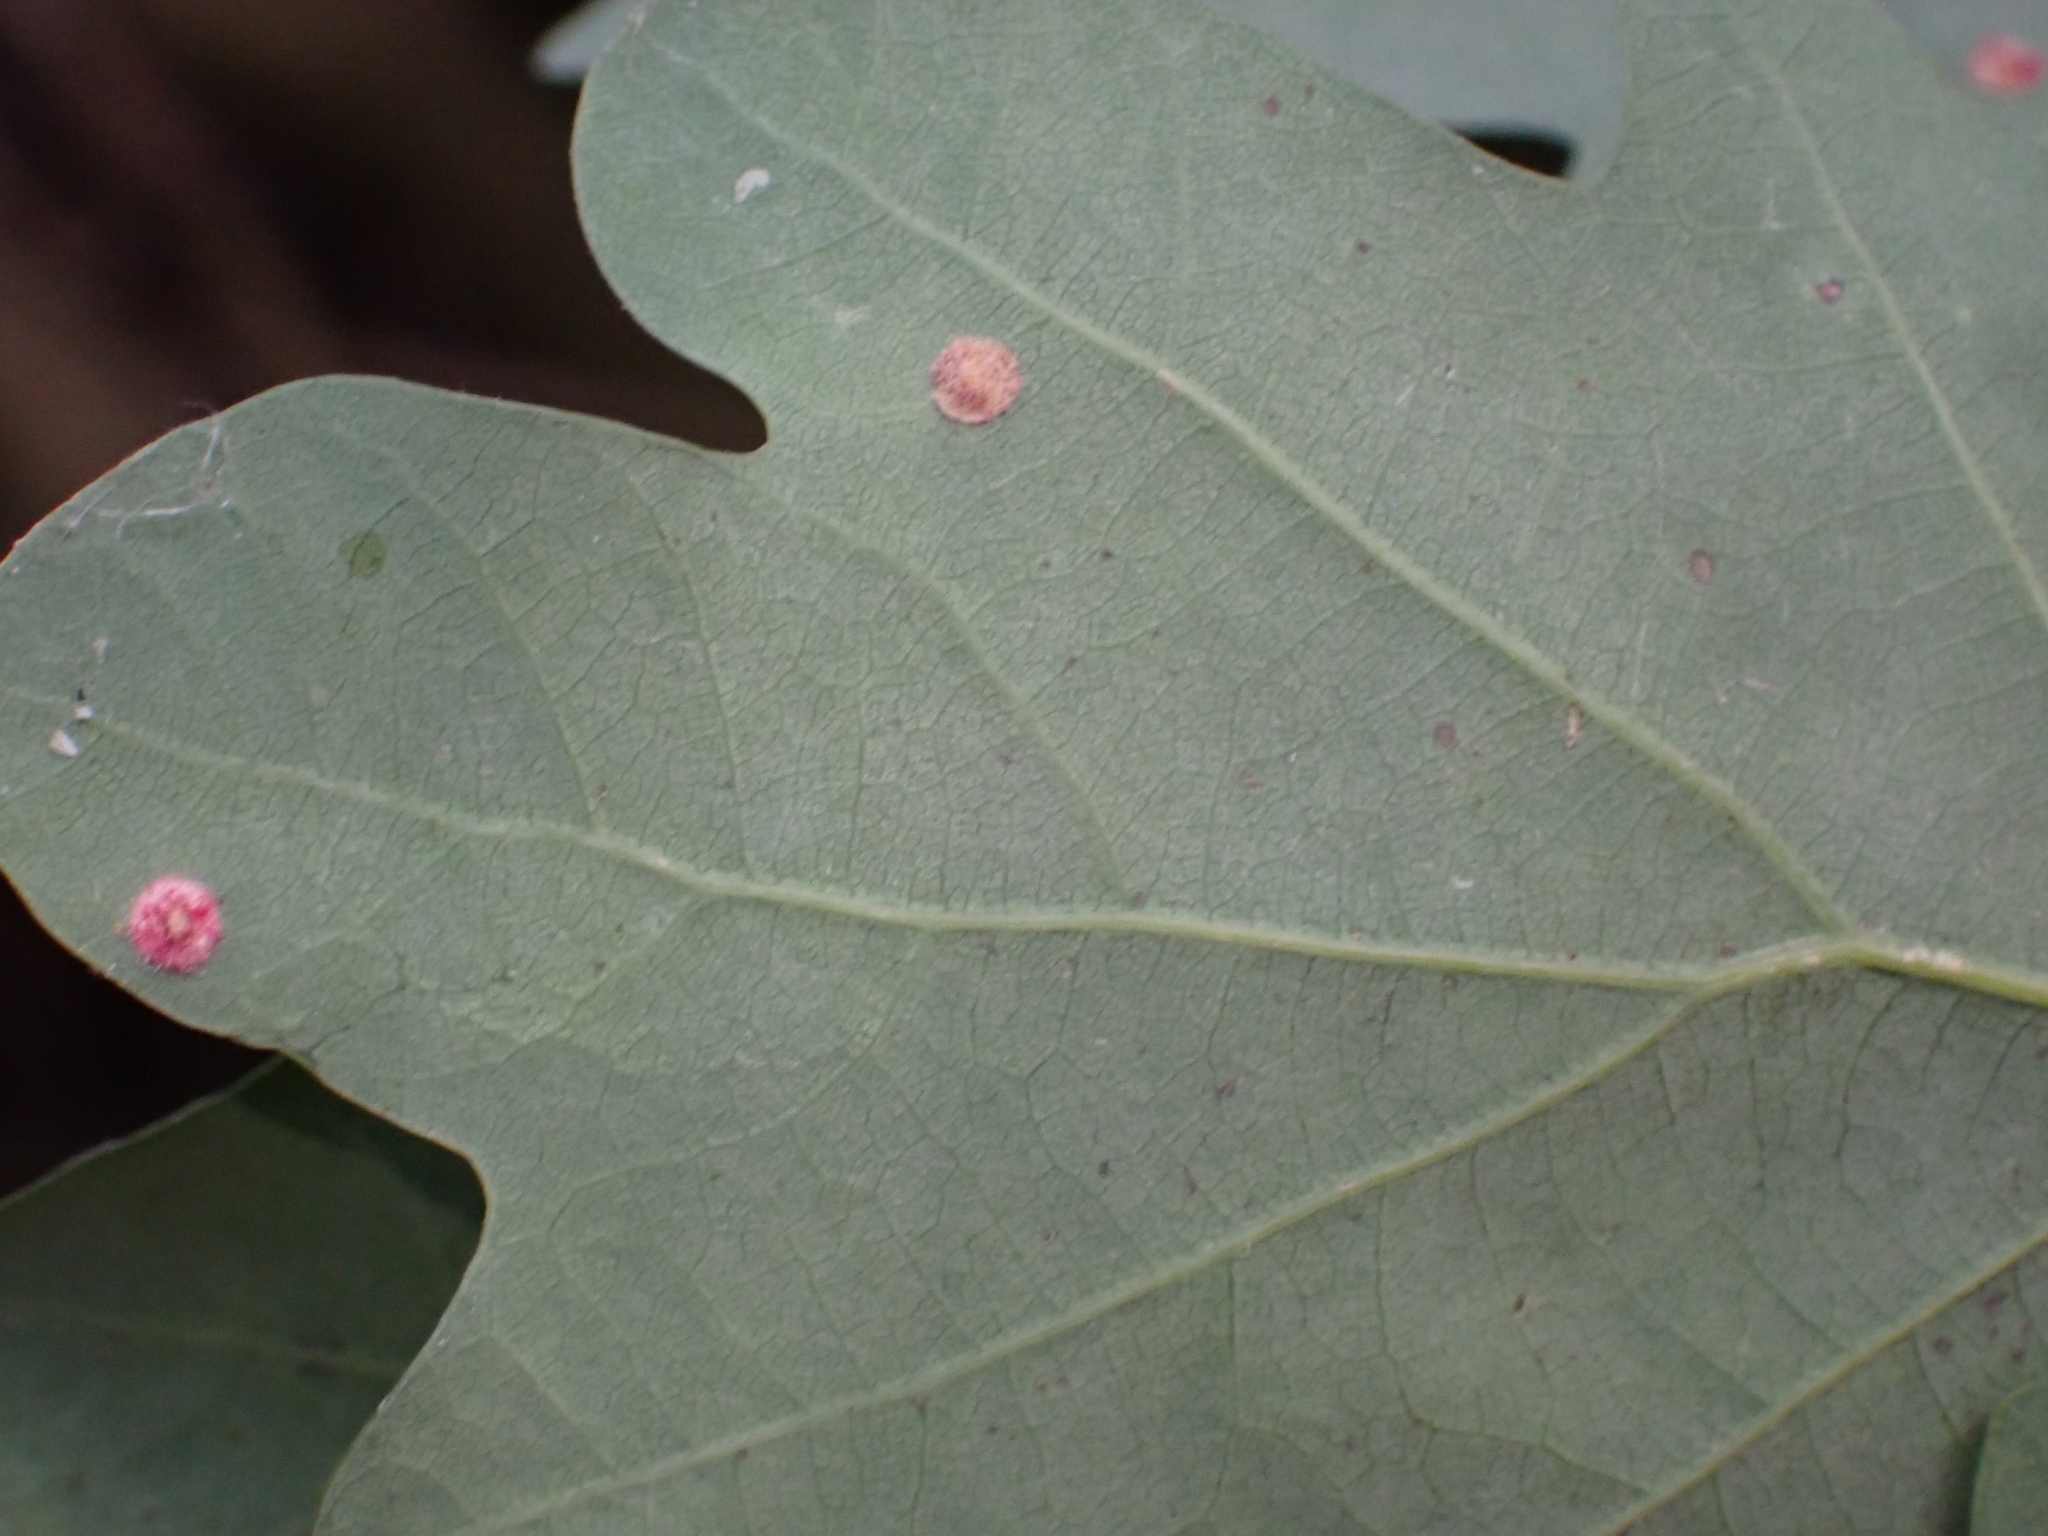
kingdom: Animalia
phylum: Arthropoda
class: Insecta
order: Hymenoptera
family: Cynipidae
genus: Neuroterus
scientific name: Neuroterus quercusbaccarum
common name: Common spangle gall
